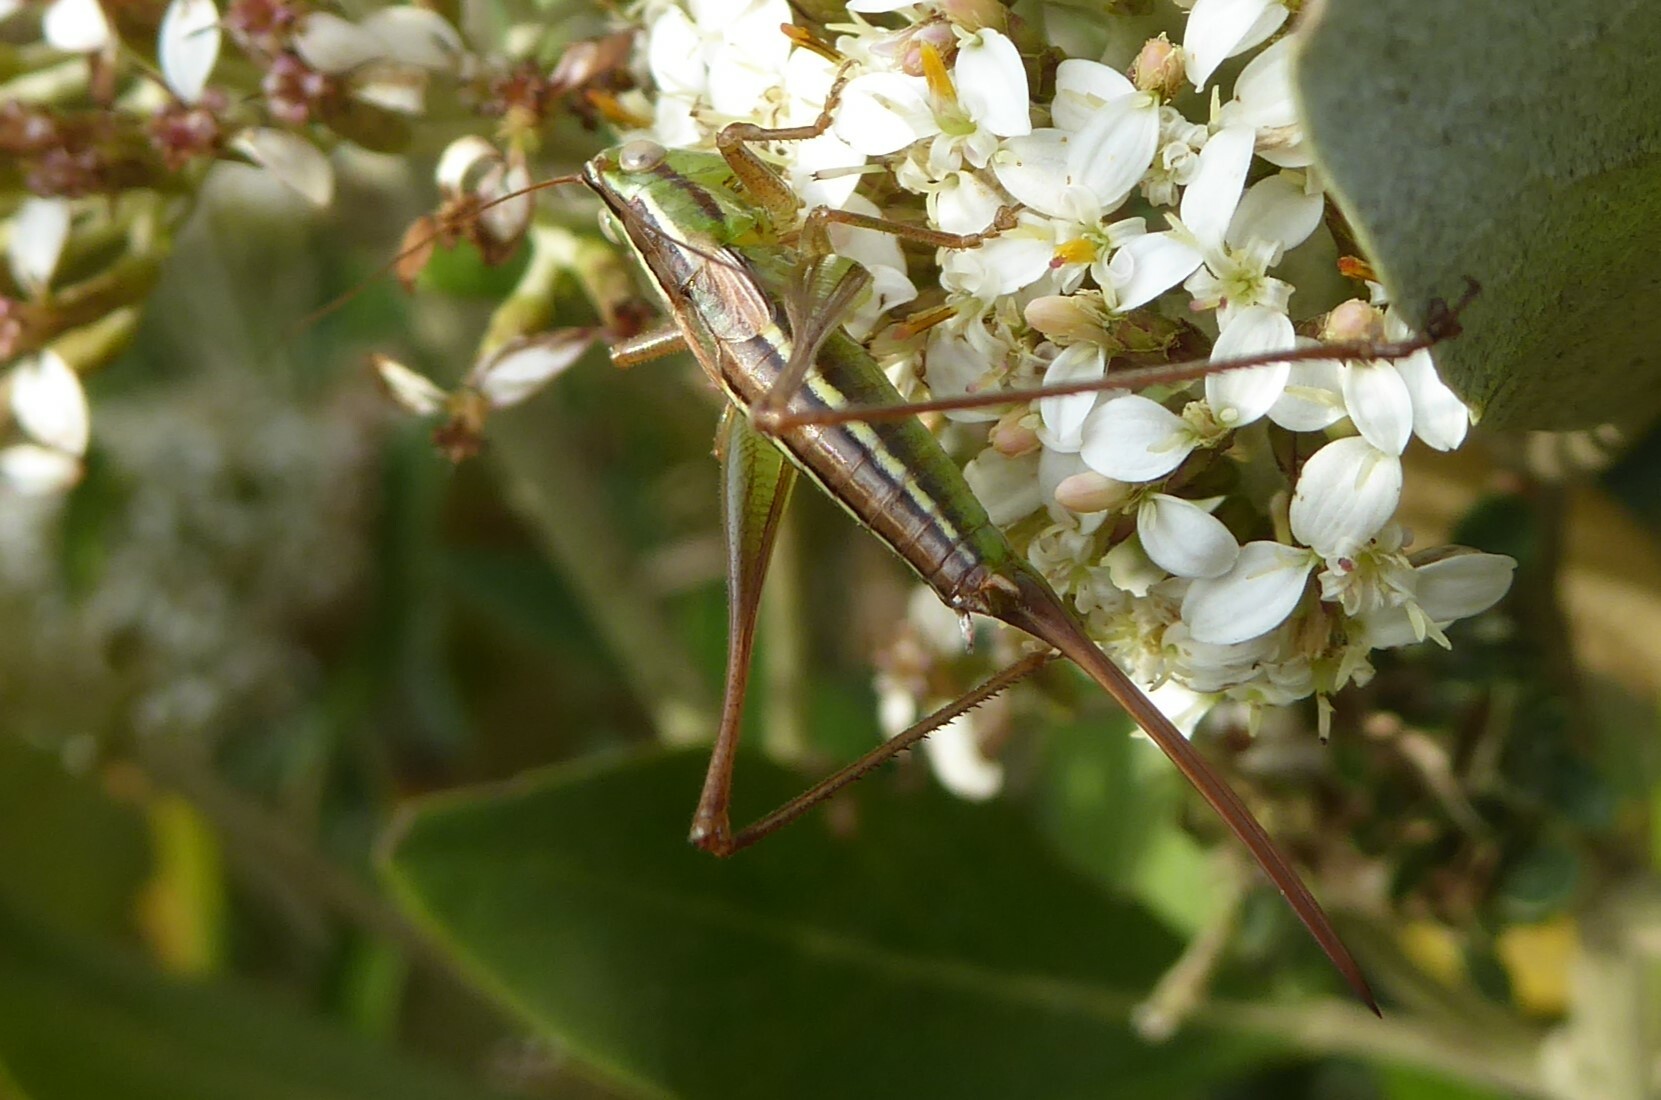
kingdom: Animalia
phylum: Arthropoda
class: Insecta
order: Orthoptera
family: Tettigoniidae
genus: Conocephalus
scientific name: Conocephalus bilineatus
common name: Small meadow katydid
